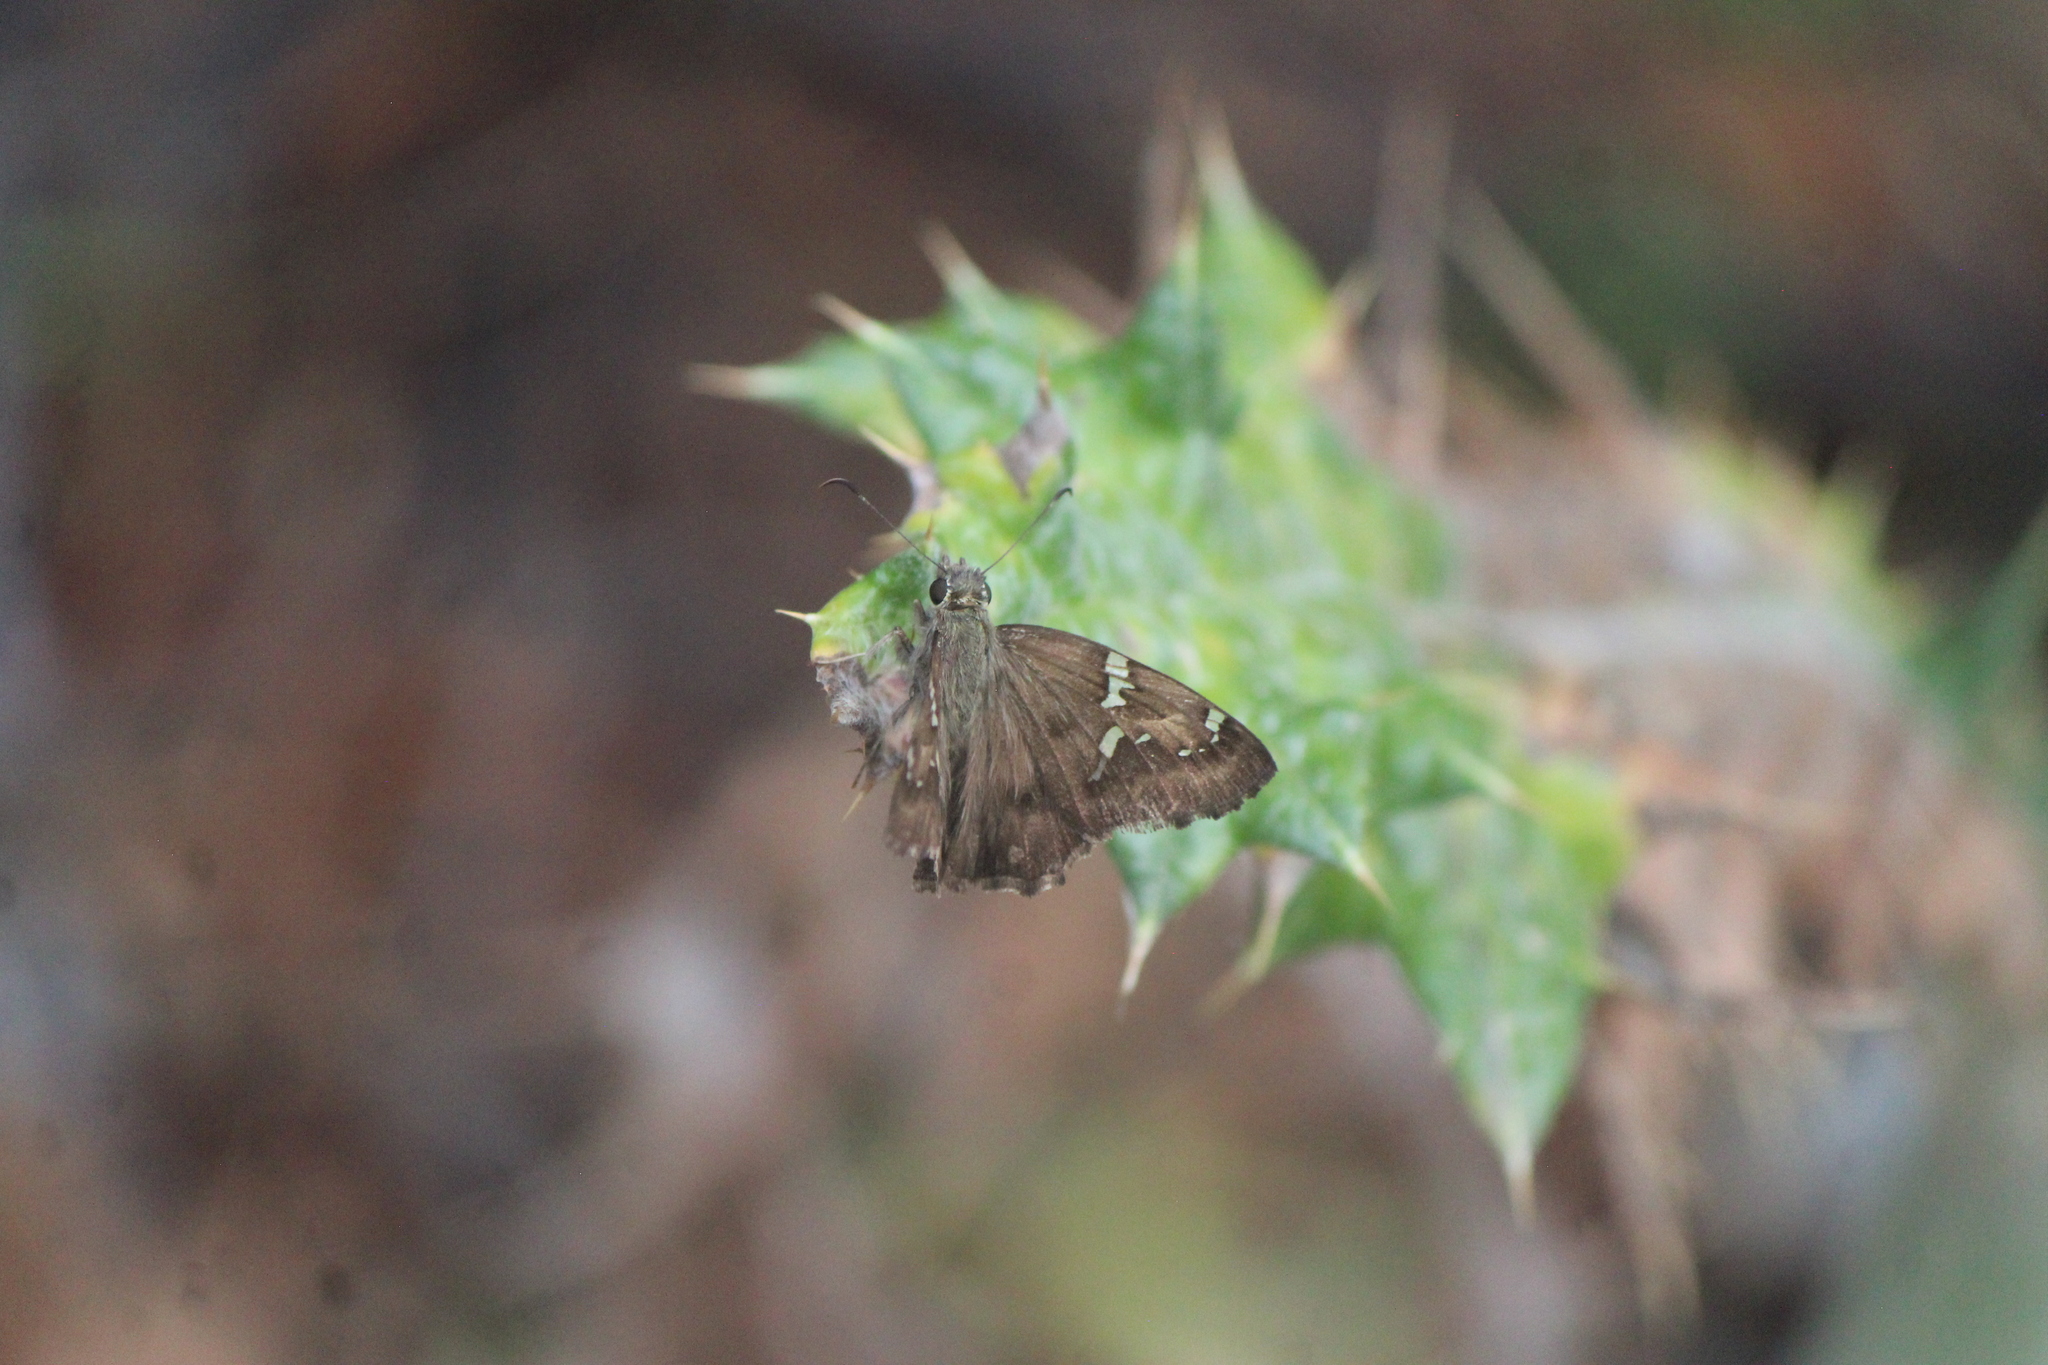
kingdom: Animalia
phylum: Arthropoda
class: Insecta
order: Lepidoptera
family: Hesperiidae
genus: Autochton
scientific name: Autochton potrillo
